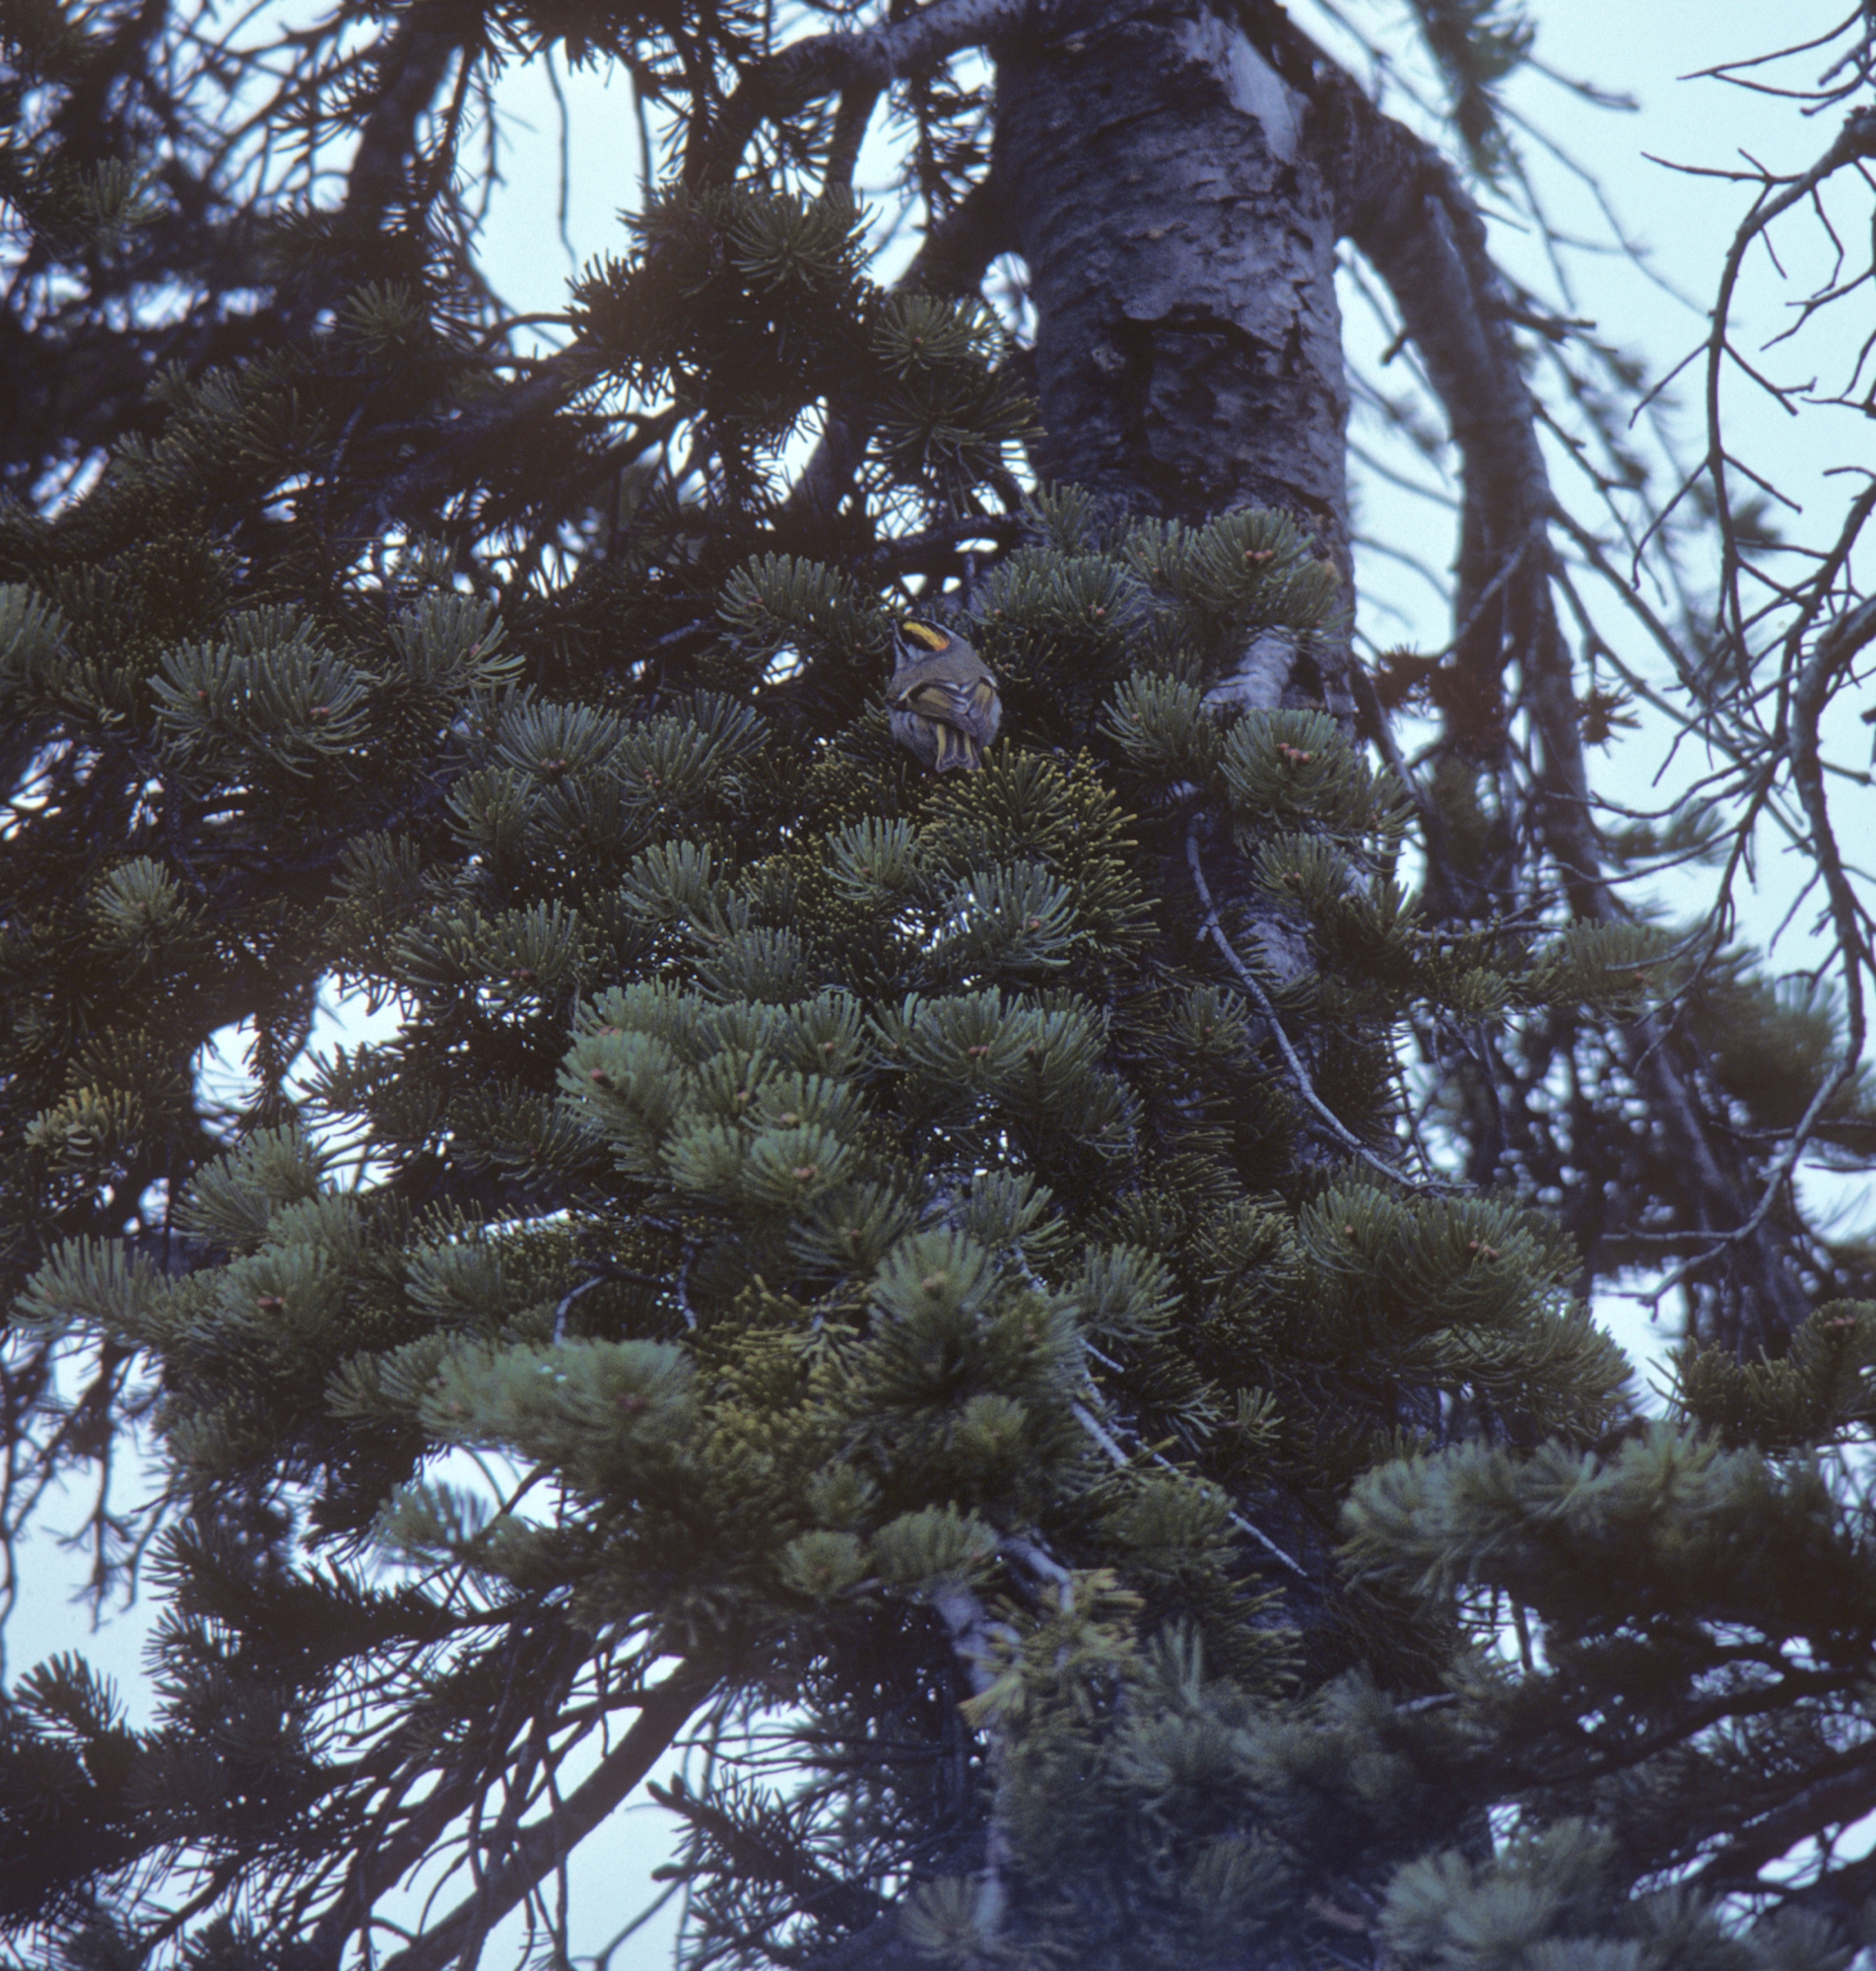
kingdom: Animalia
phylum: Chordata
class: Aves
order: Passeriformes
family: Regulidae
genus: Regulus
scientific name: Regulus satrapa
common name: Golden-crowned kinglet
